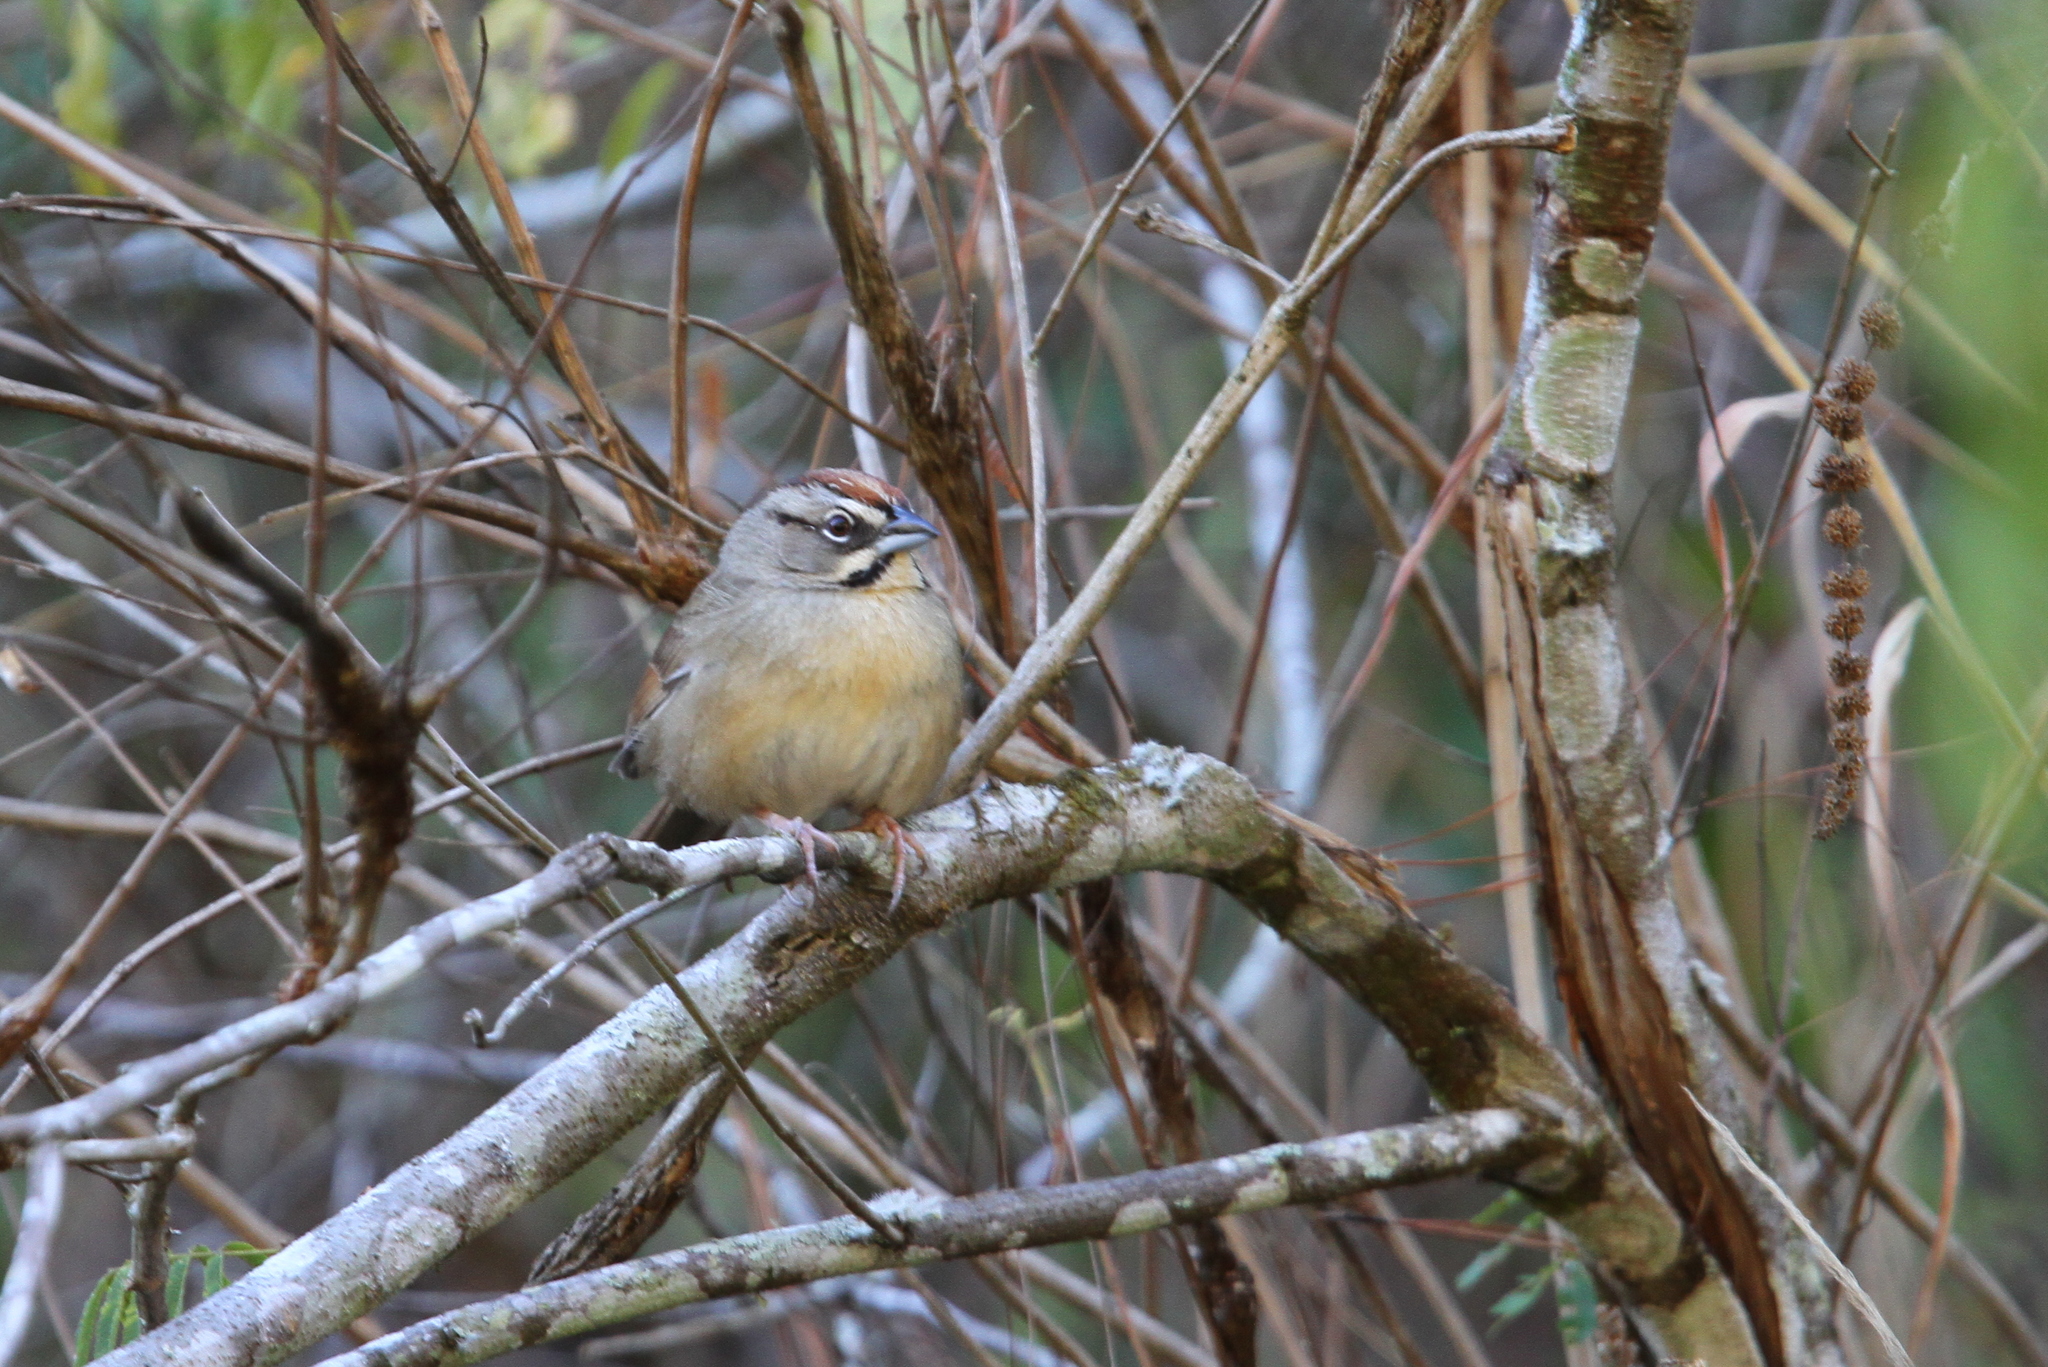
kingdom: Animalia
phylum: Chordata
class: Aves
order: Passeriformes
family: Passerellidae
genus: Aimophila
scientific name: Aimophila rufescens
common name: Rusty sparrow
